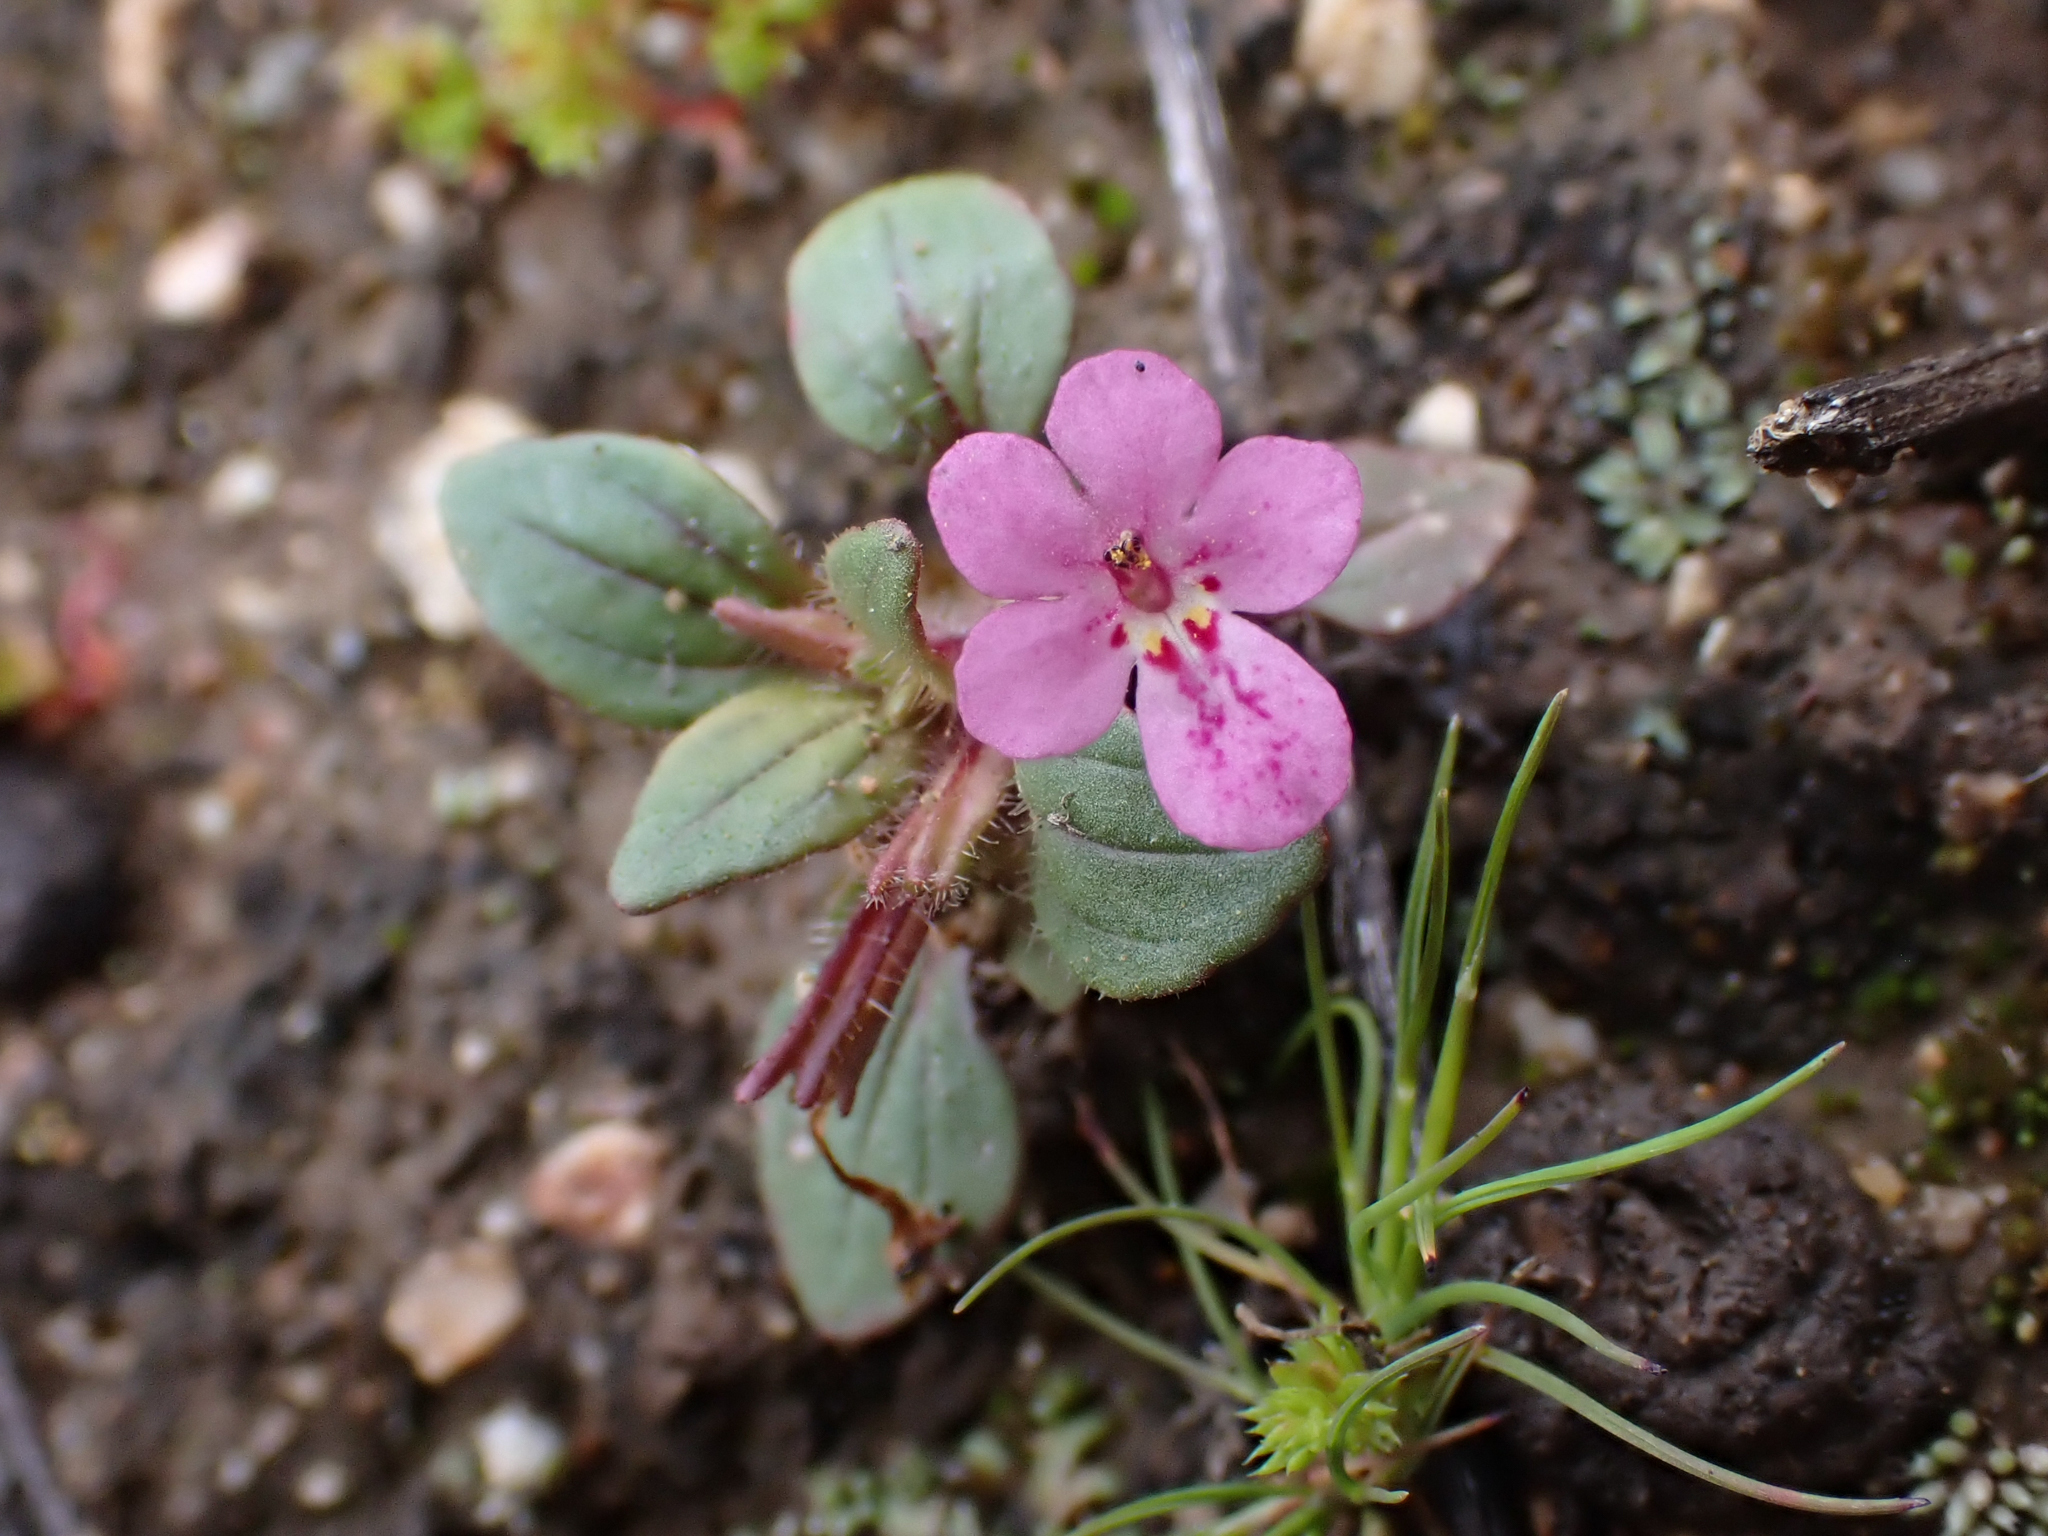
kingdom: Plantae
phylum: Tracheophyta
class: Magnoliopsida
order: Lamiales
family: Phrymaceae
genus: Diplacus
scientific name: Diplacus congdonii
